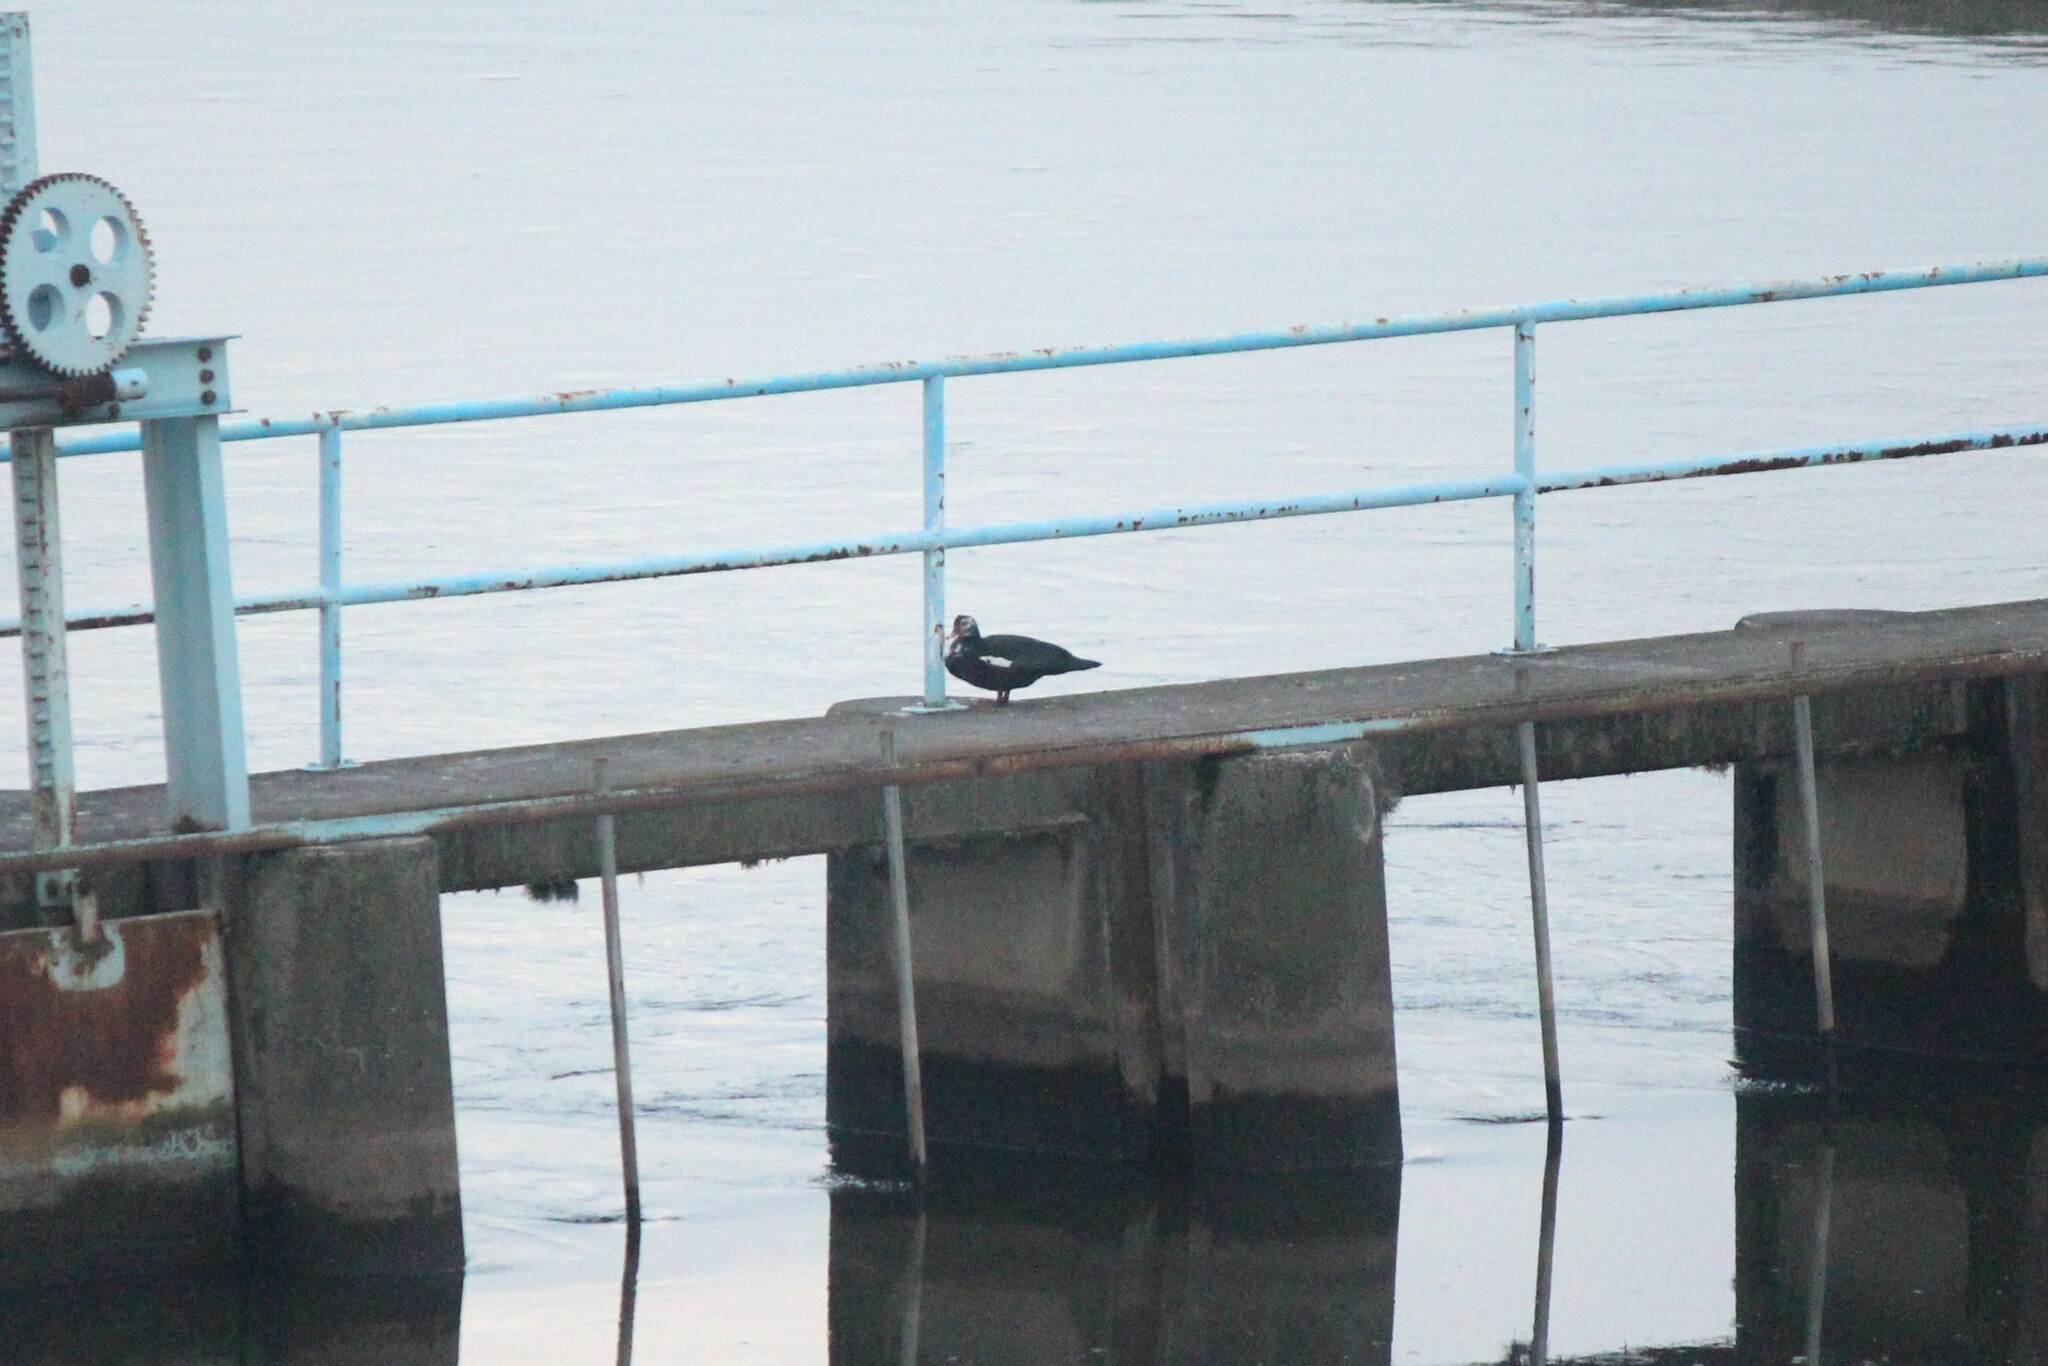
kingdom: Animalia
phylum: Chordata
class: Aves
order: Anseriformes
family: Anatidae
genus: Cairina
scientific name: Cairina moschata
